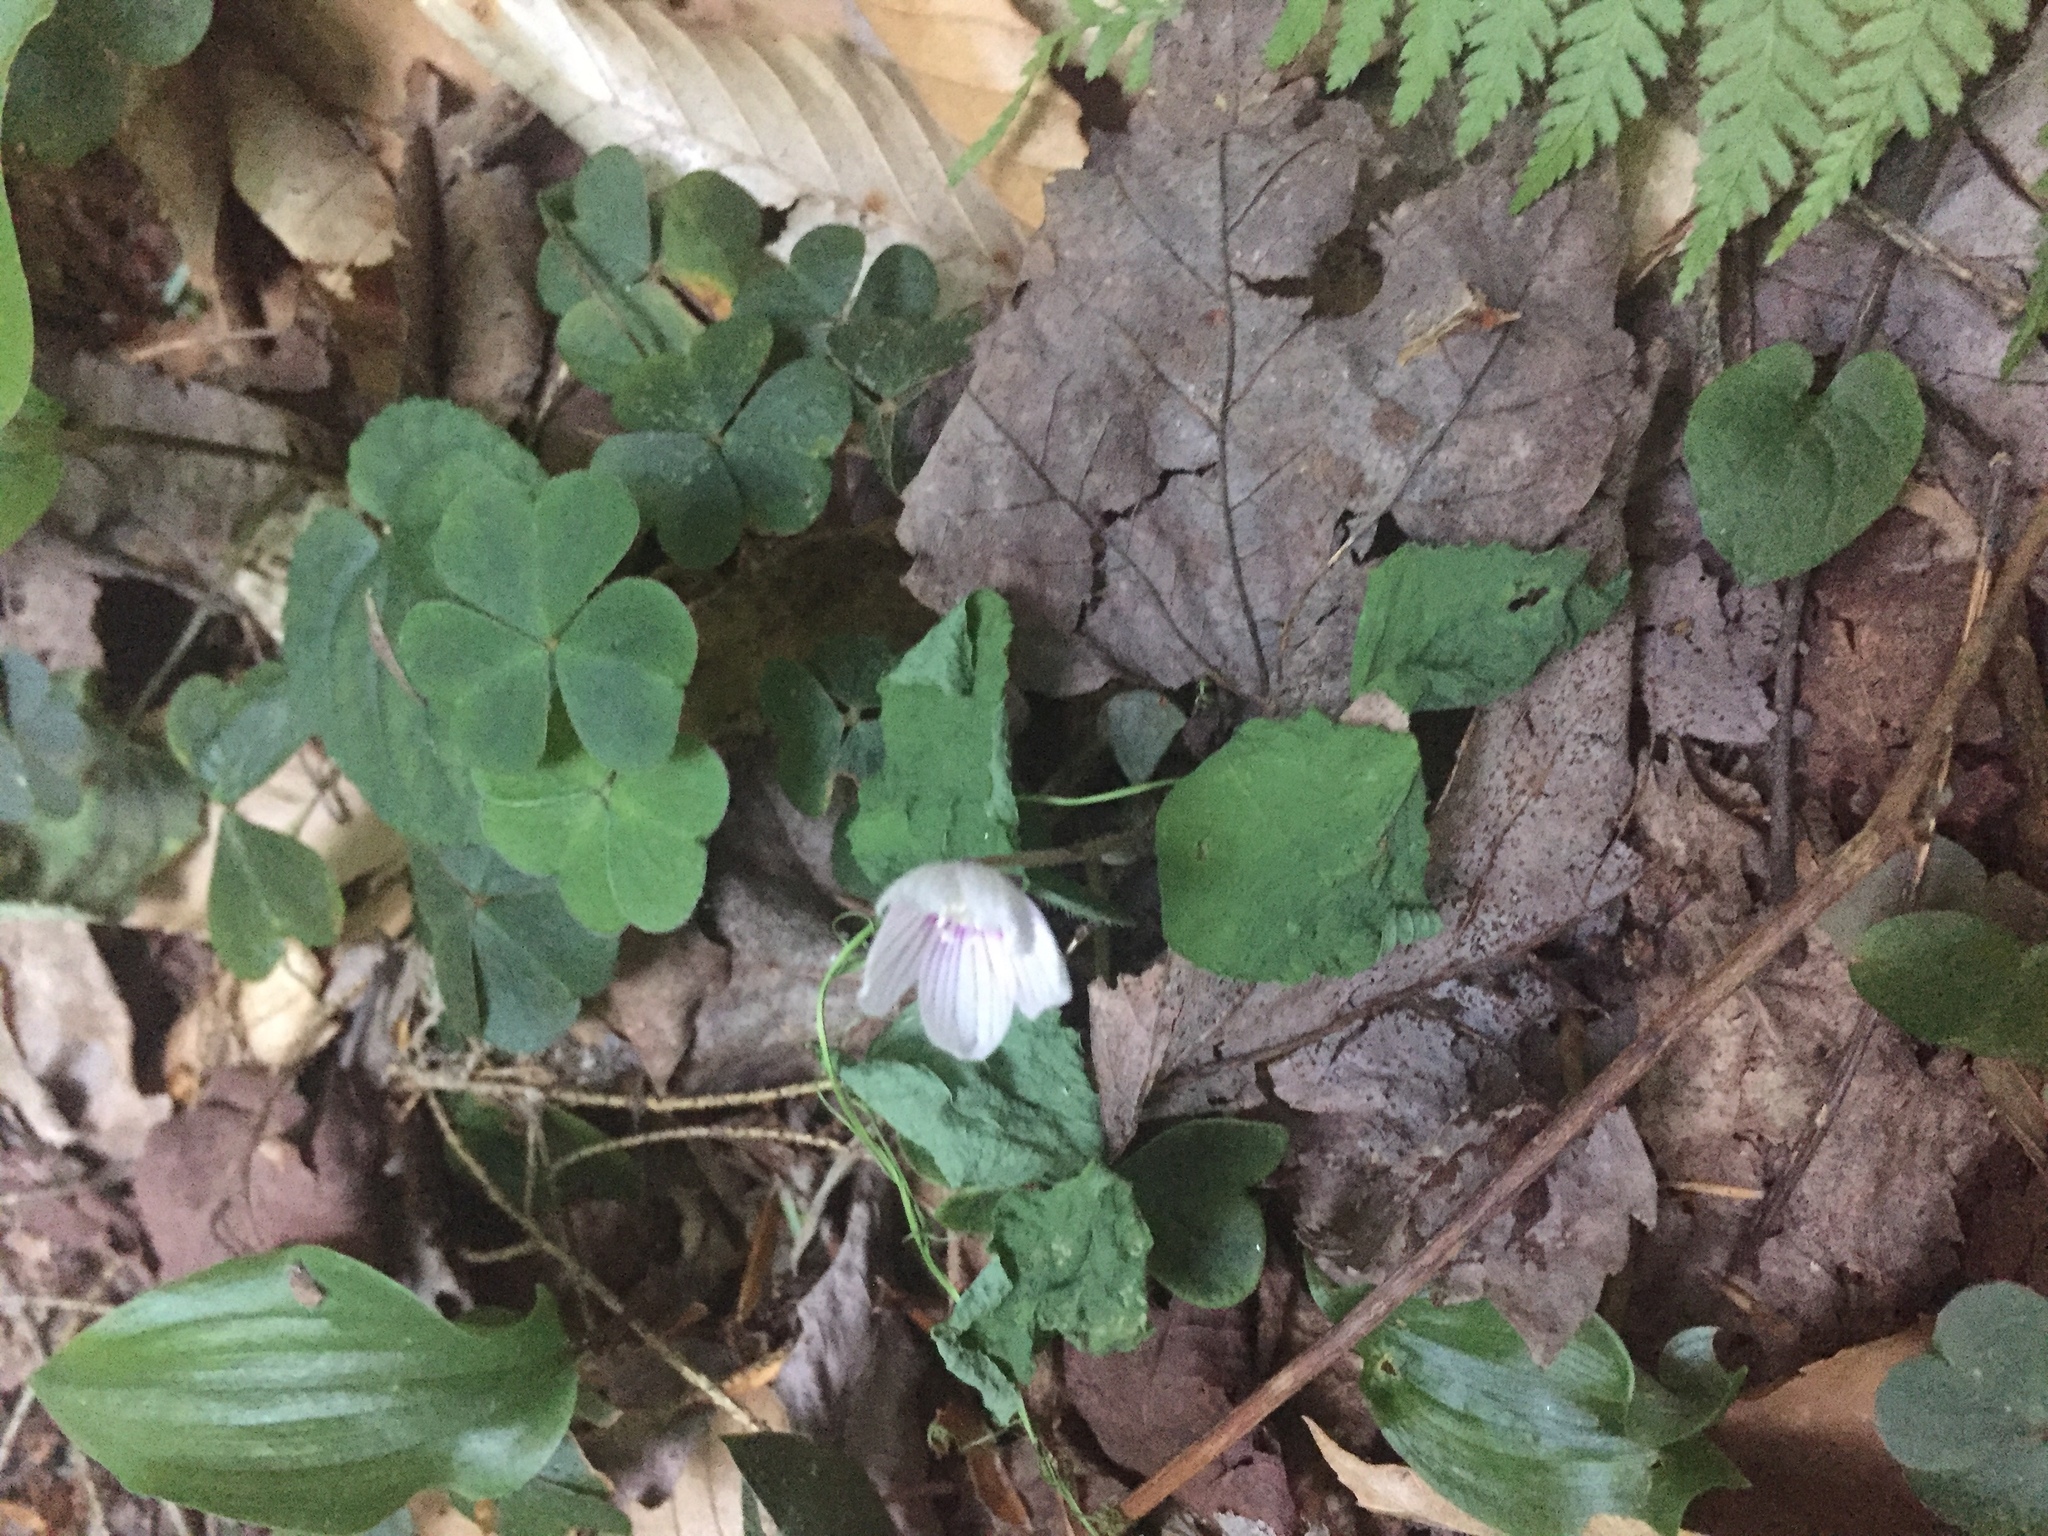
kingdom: Plantae
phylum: Tracheophyta
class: Magnoliopsida
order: Oxalidales
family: Oxalidaceae
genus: Oxalis
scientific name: Oxalis montana
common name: American wood-sorrel
